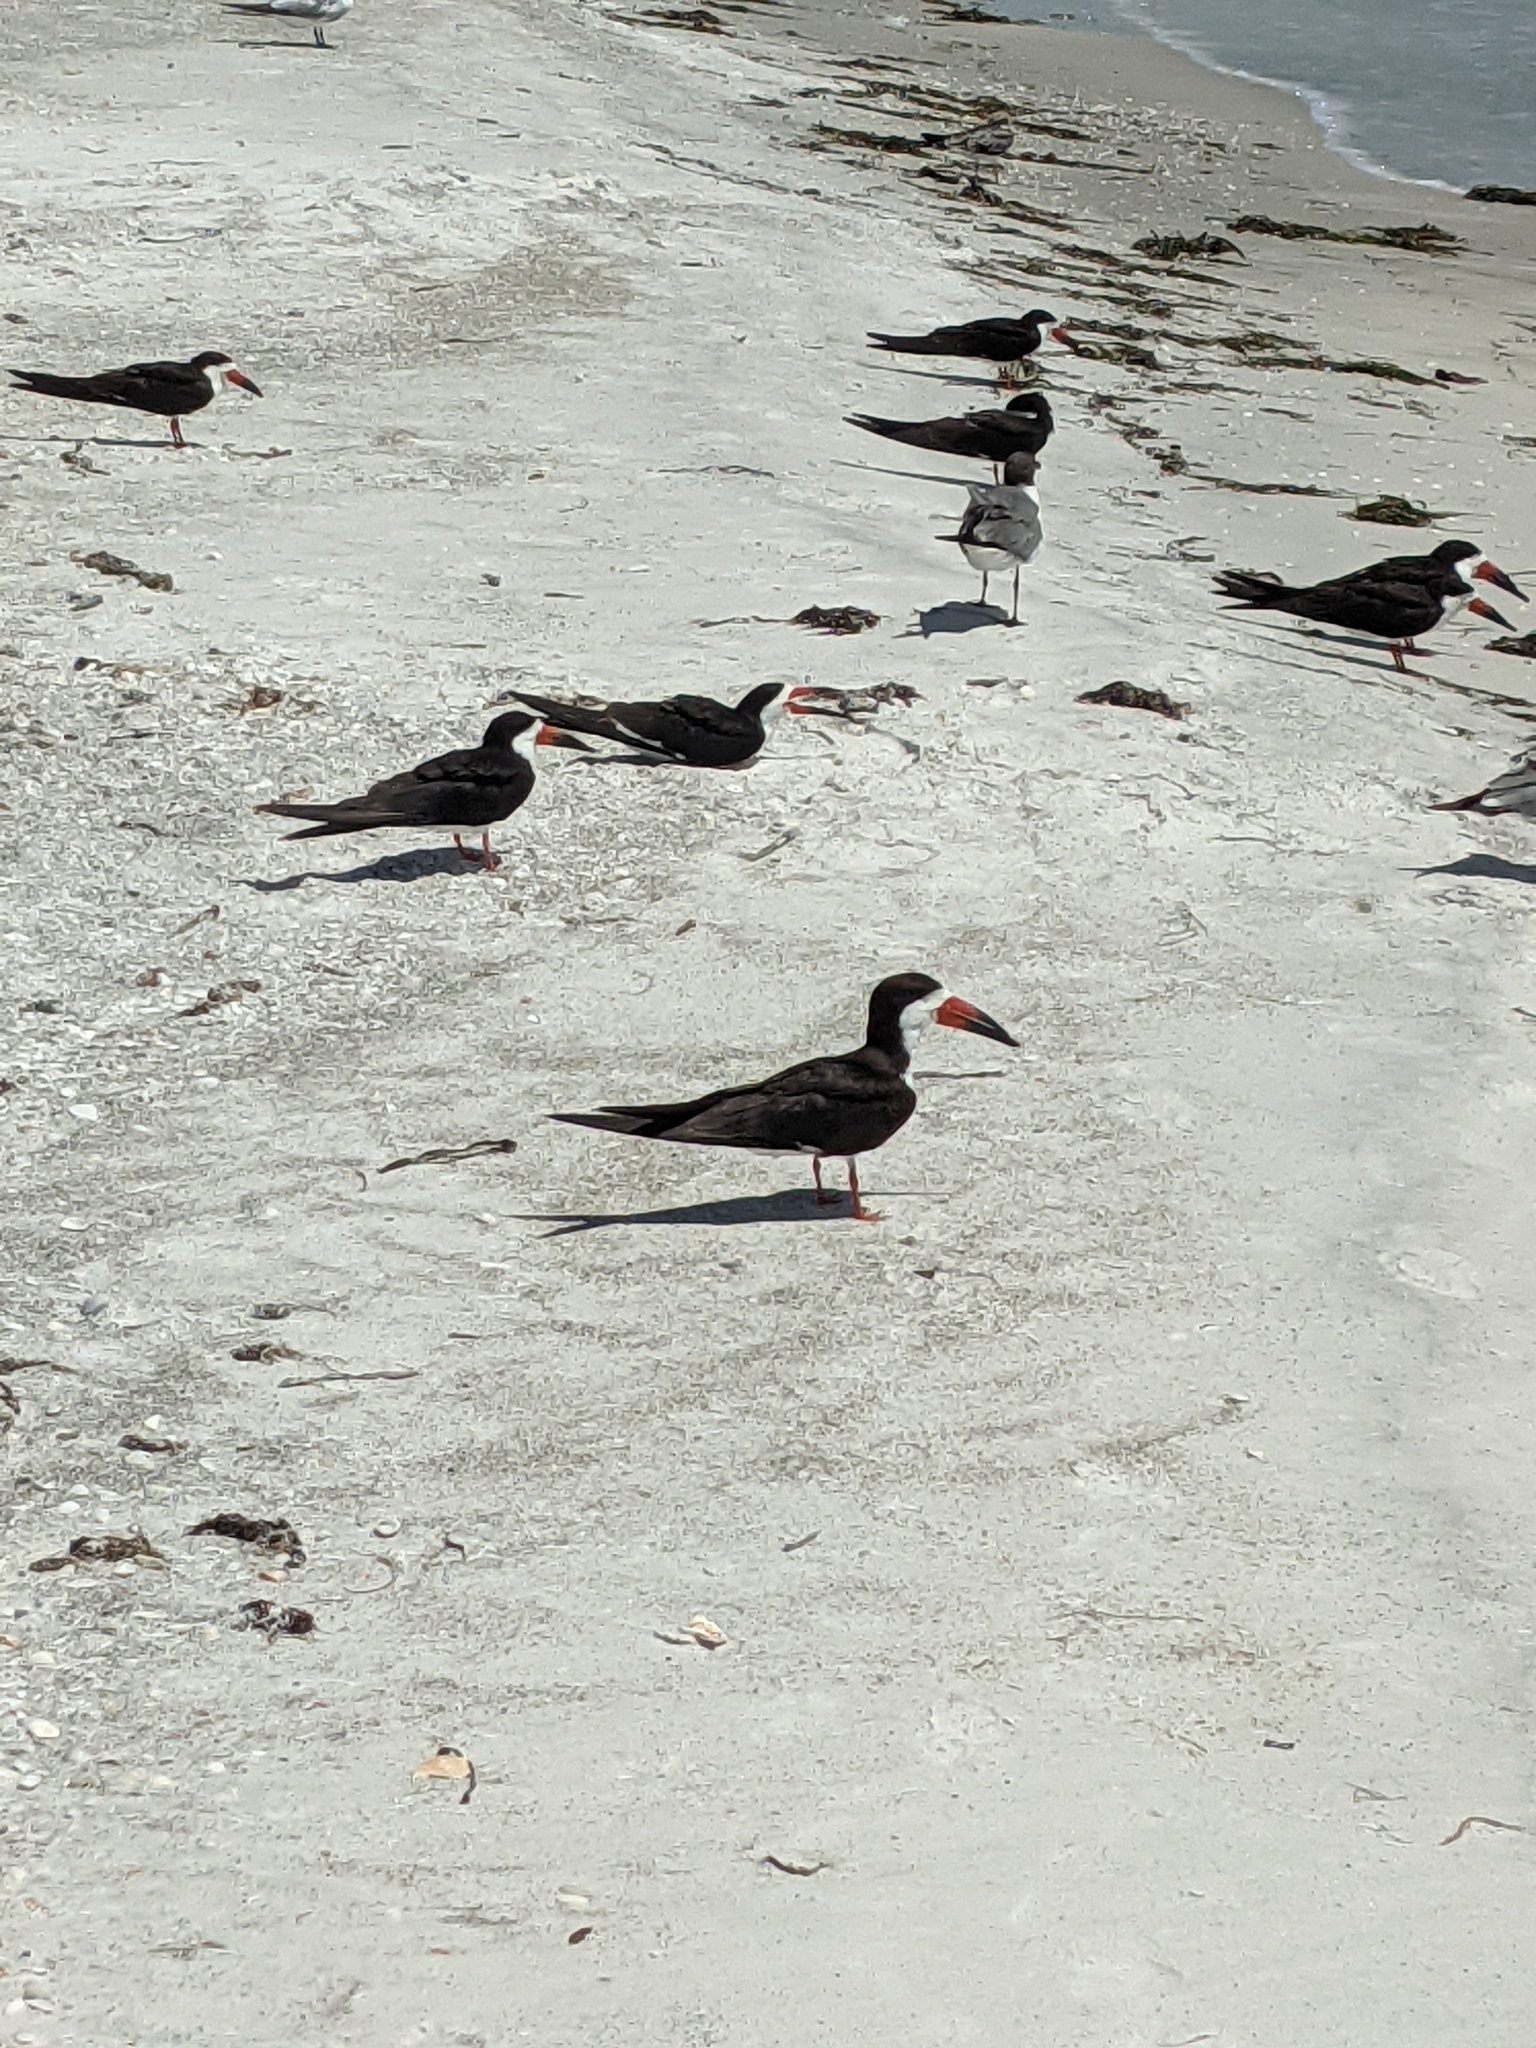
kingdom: Animalia
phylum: Chordata
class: Aves
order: Charadriiformes
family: Laridae
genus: Rynchops
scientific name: Rynchops niger
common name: Black skimmer
